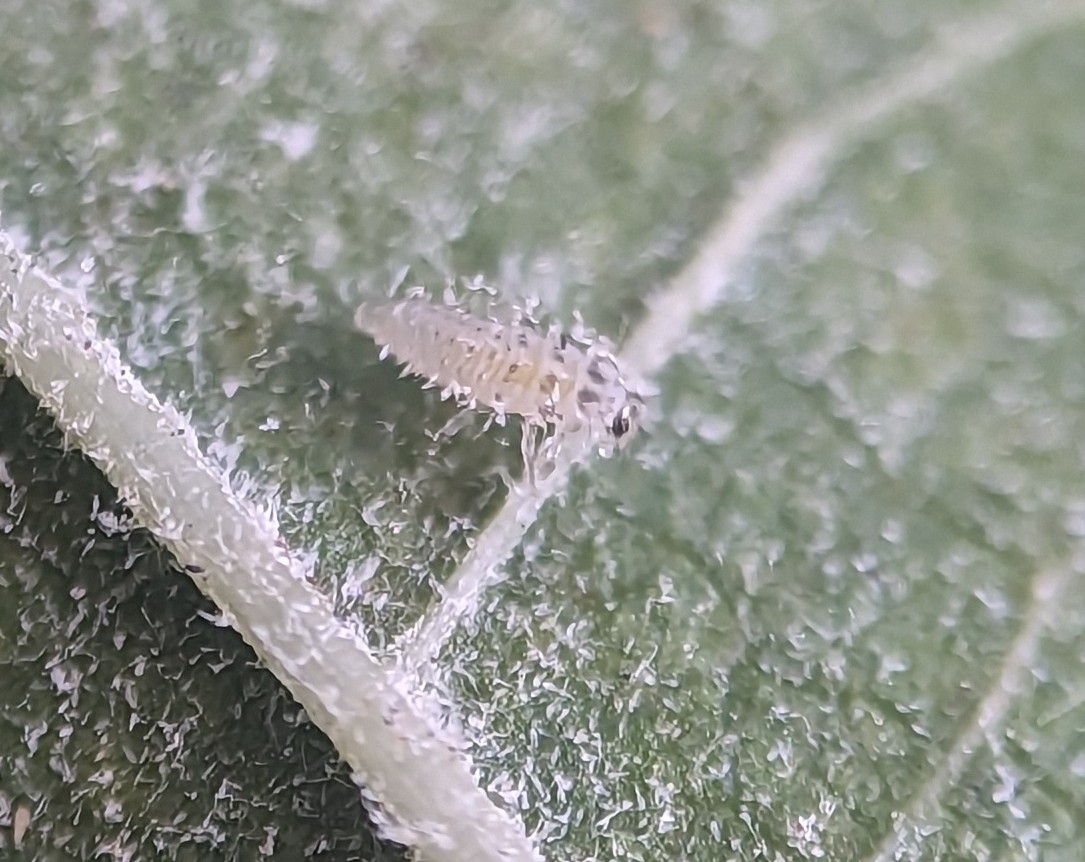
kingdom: Fungi
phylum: Ascomycota
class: Leotiomycetes
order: Helotiales
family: Erysiphaceae
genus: Erysiphe
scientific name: Erysiphe geniculata
